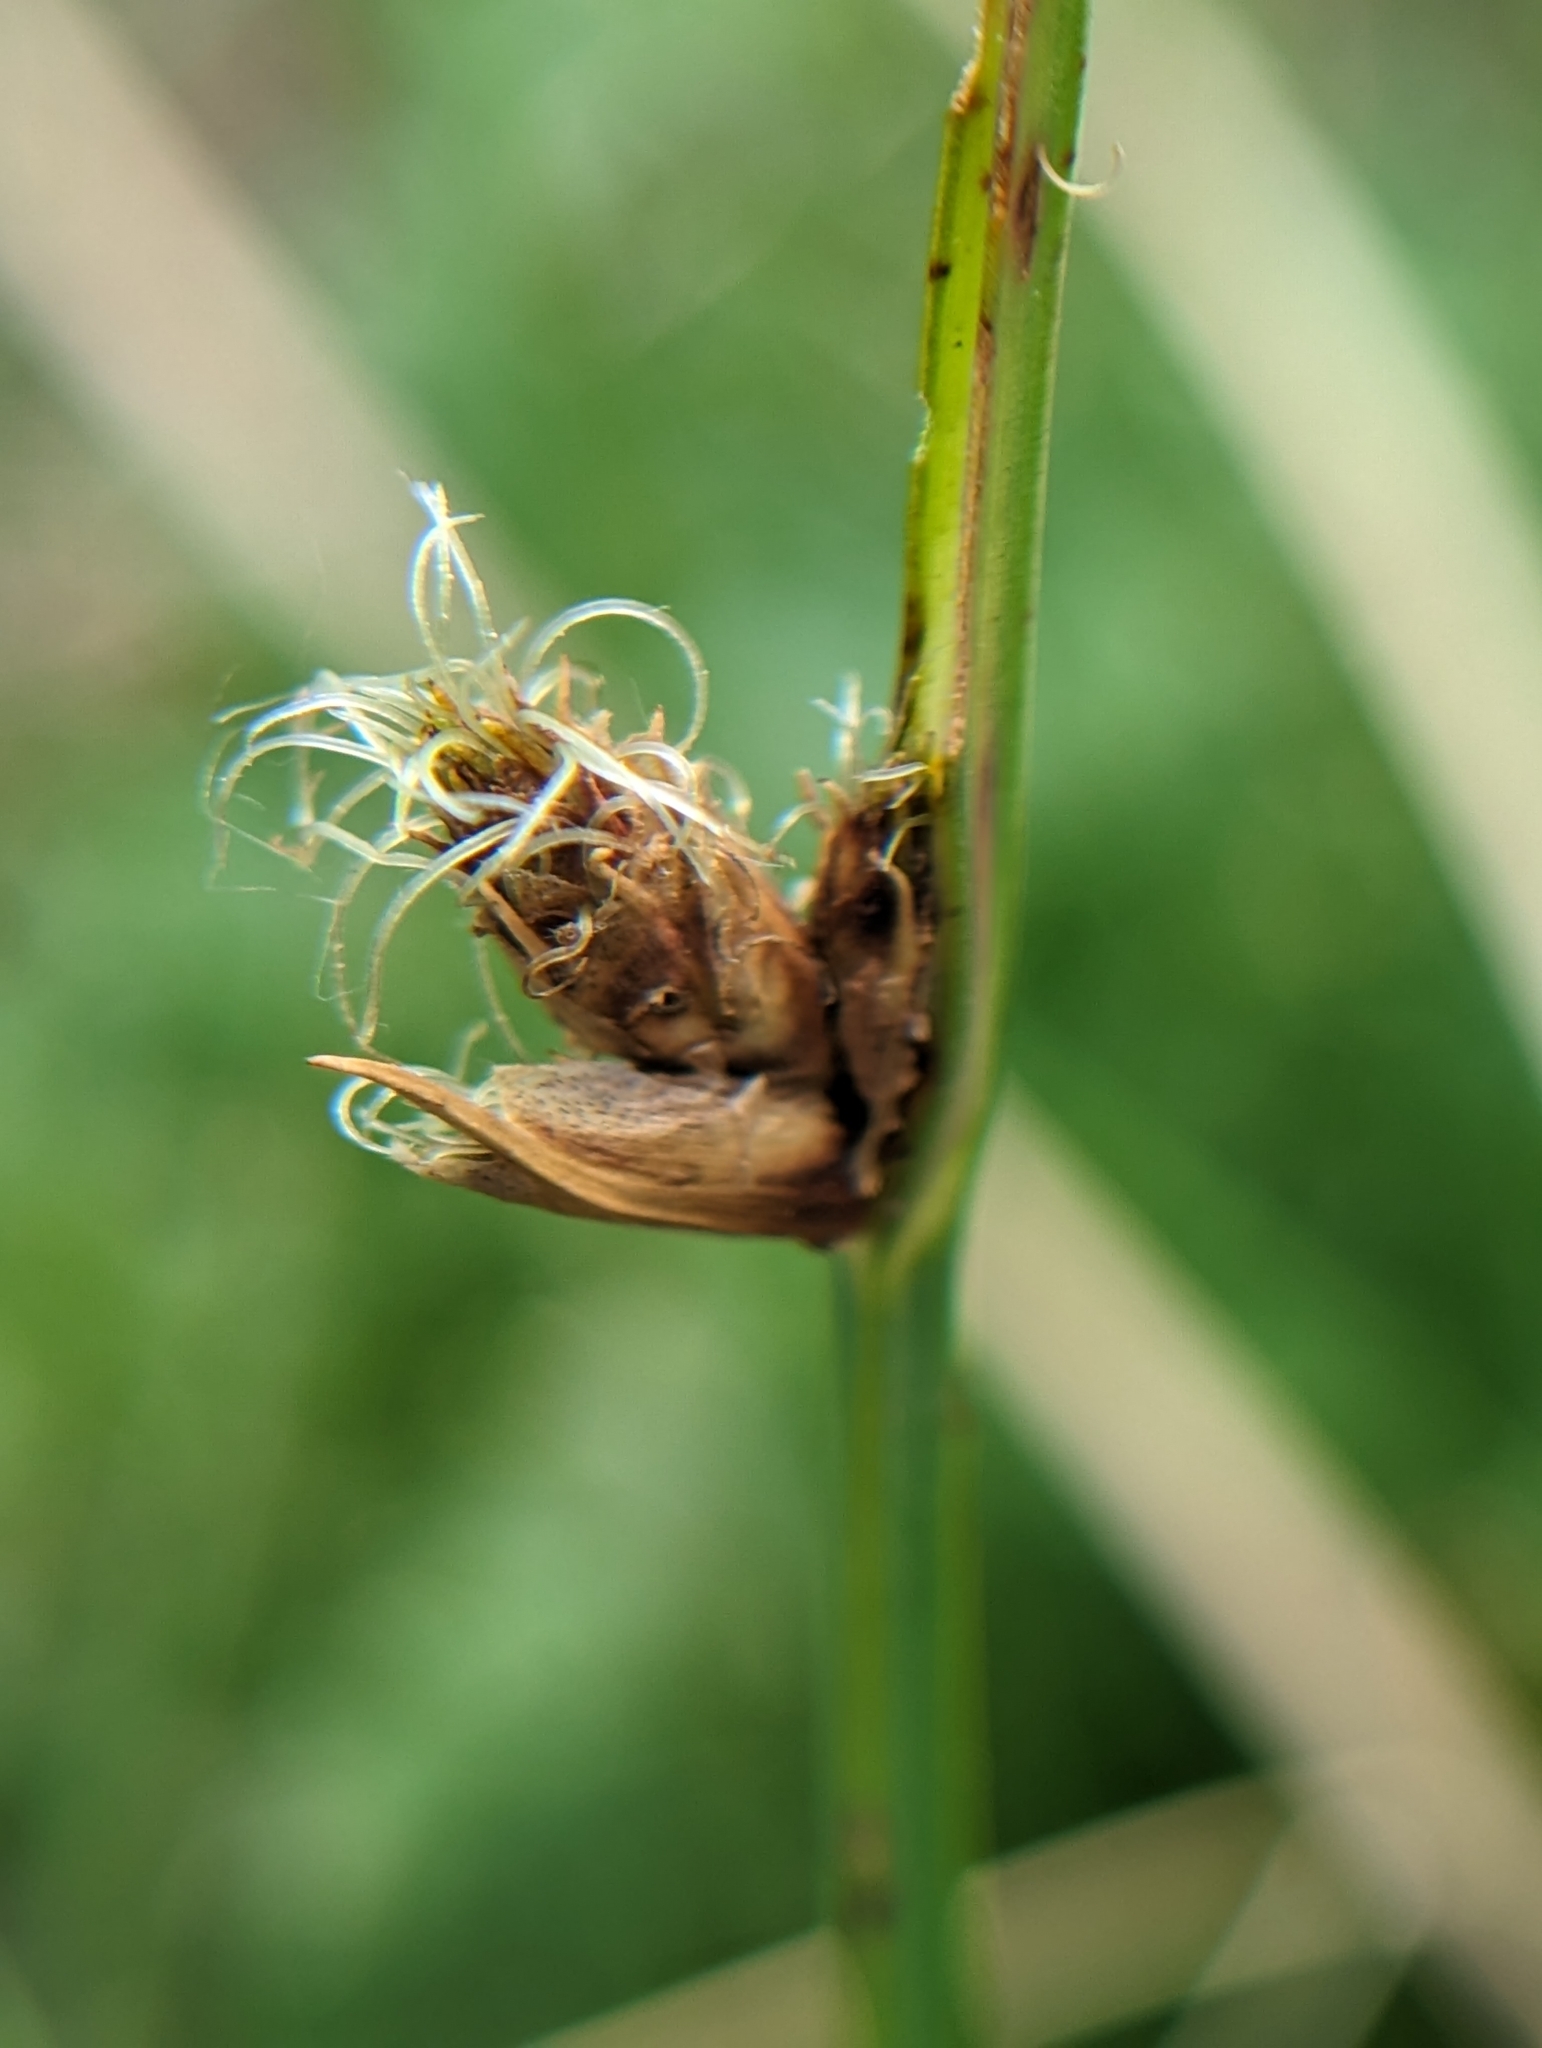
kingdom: Plantae
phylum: Tracheophyta
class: Liliopsida
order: Poales
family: Cyperaceae
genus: Schoenoplectus
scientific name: Schoenoplectus pungens
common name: Sharp club-rush
